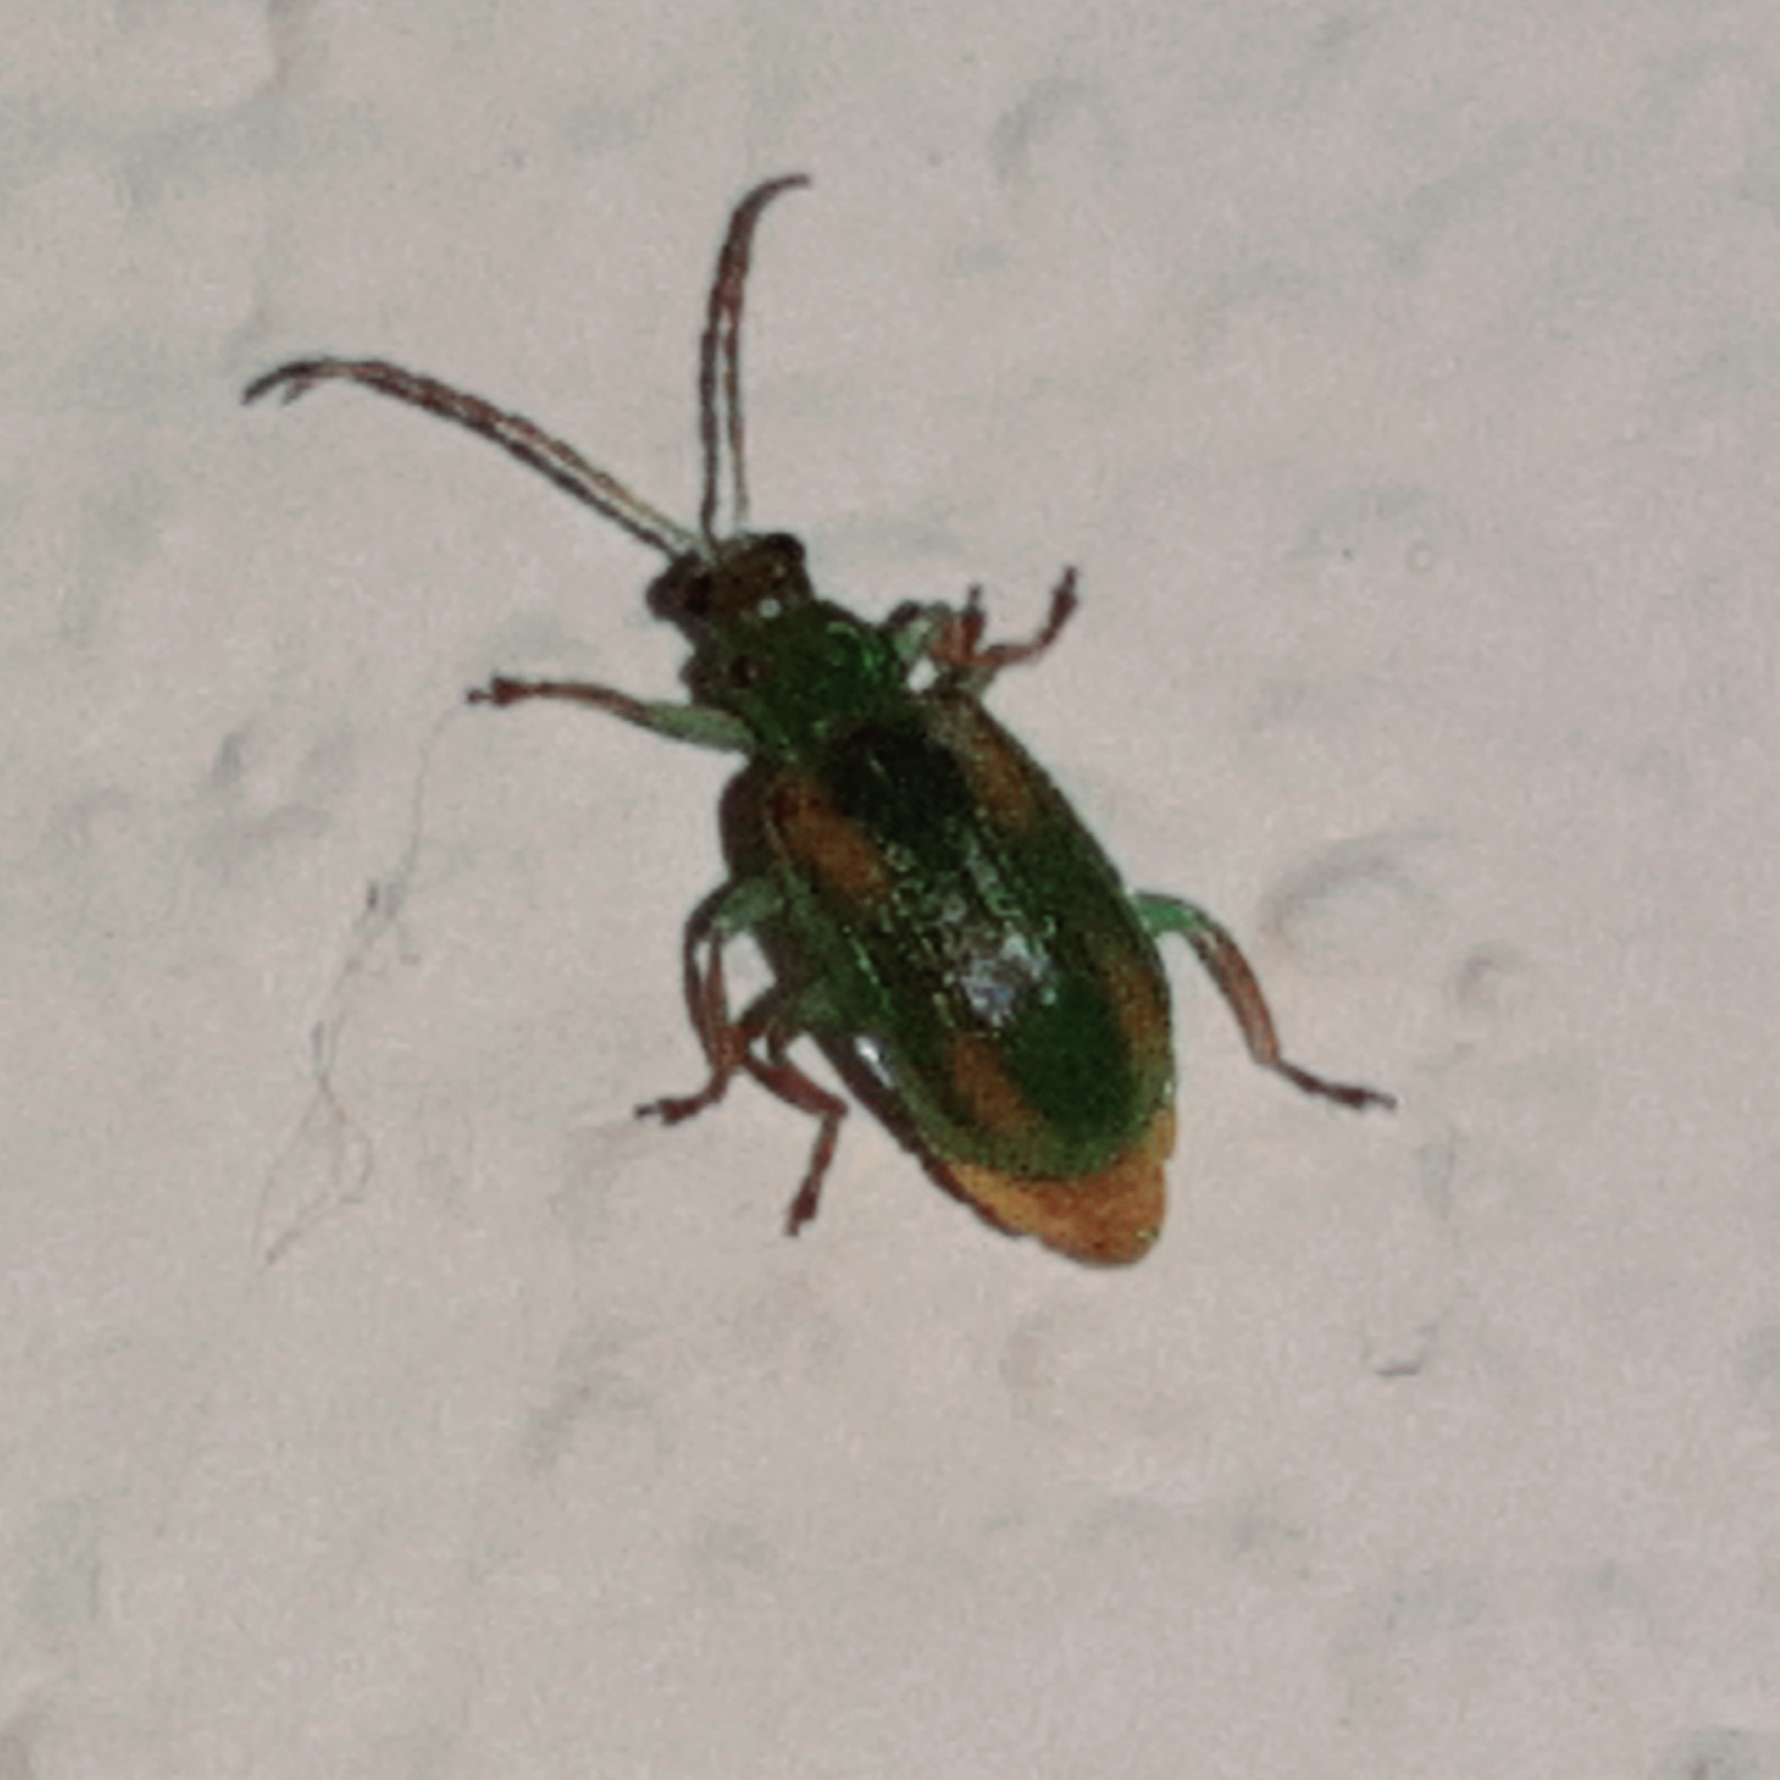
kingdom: Animalia
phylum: Arthropoda
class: Insecta
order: Coleoptera
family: Chrysomelidae
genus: Diabrotica
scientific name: Diabrotica porracea
